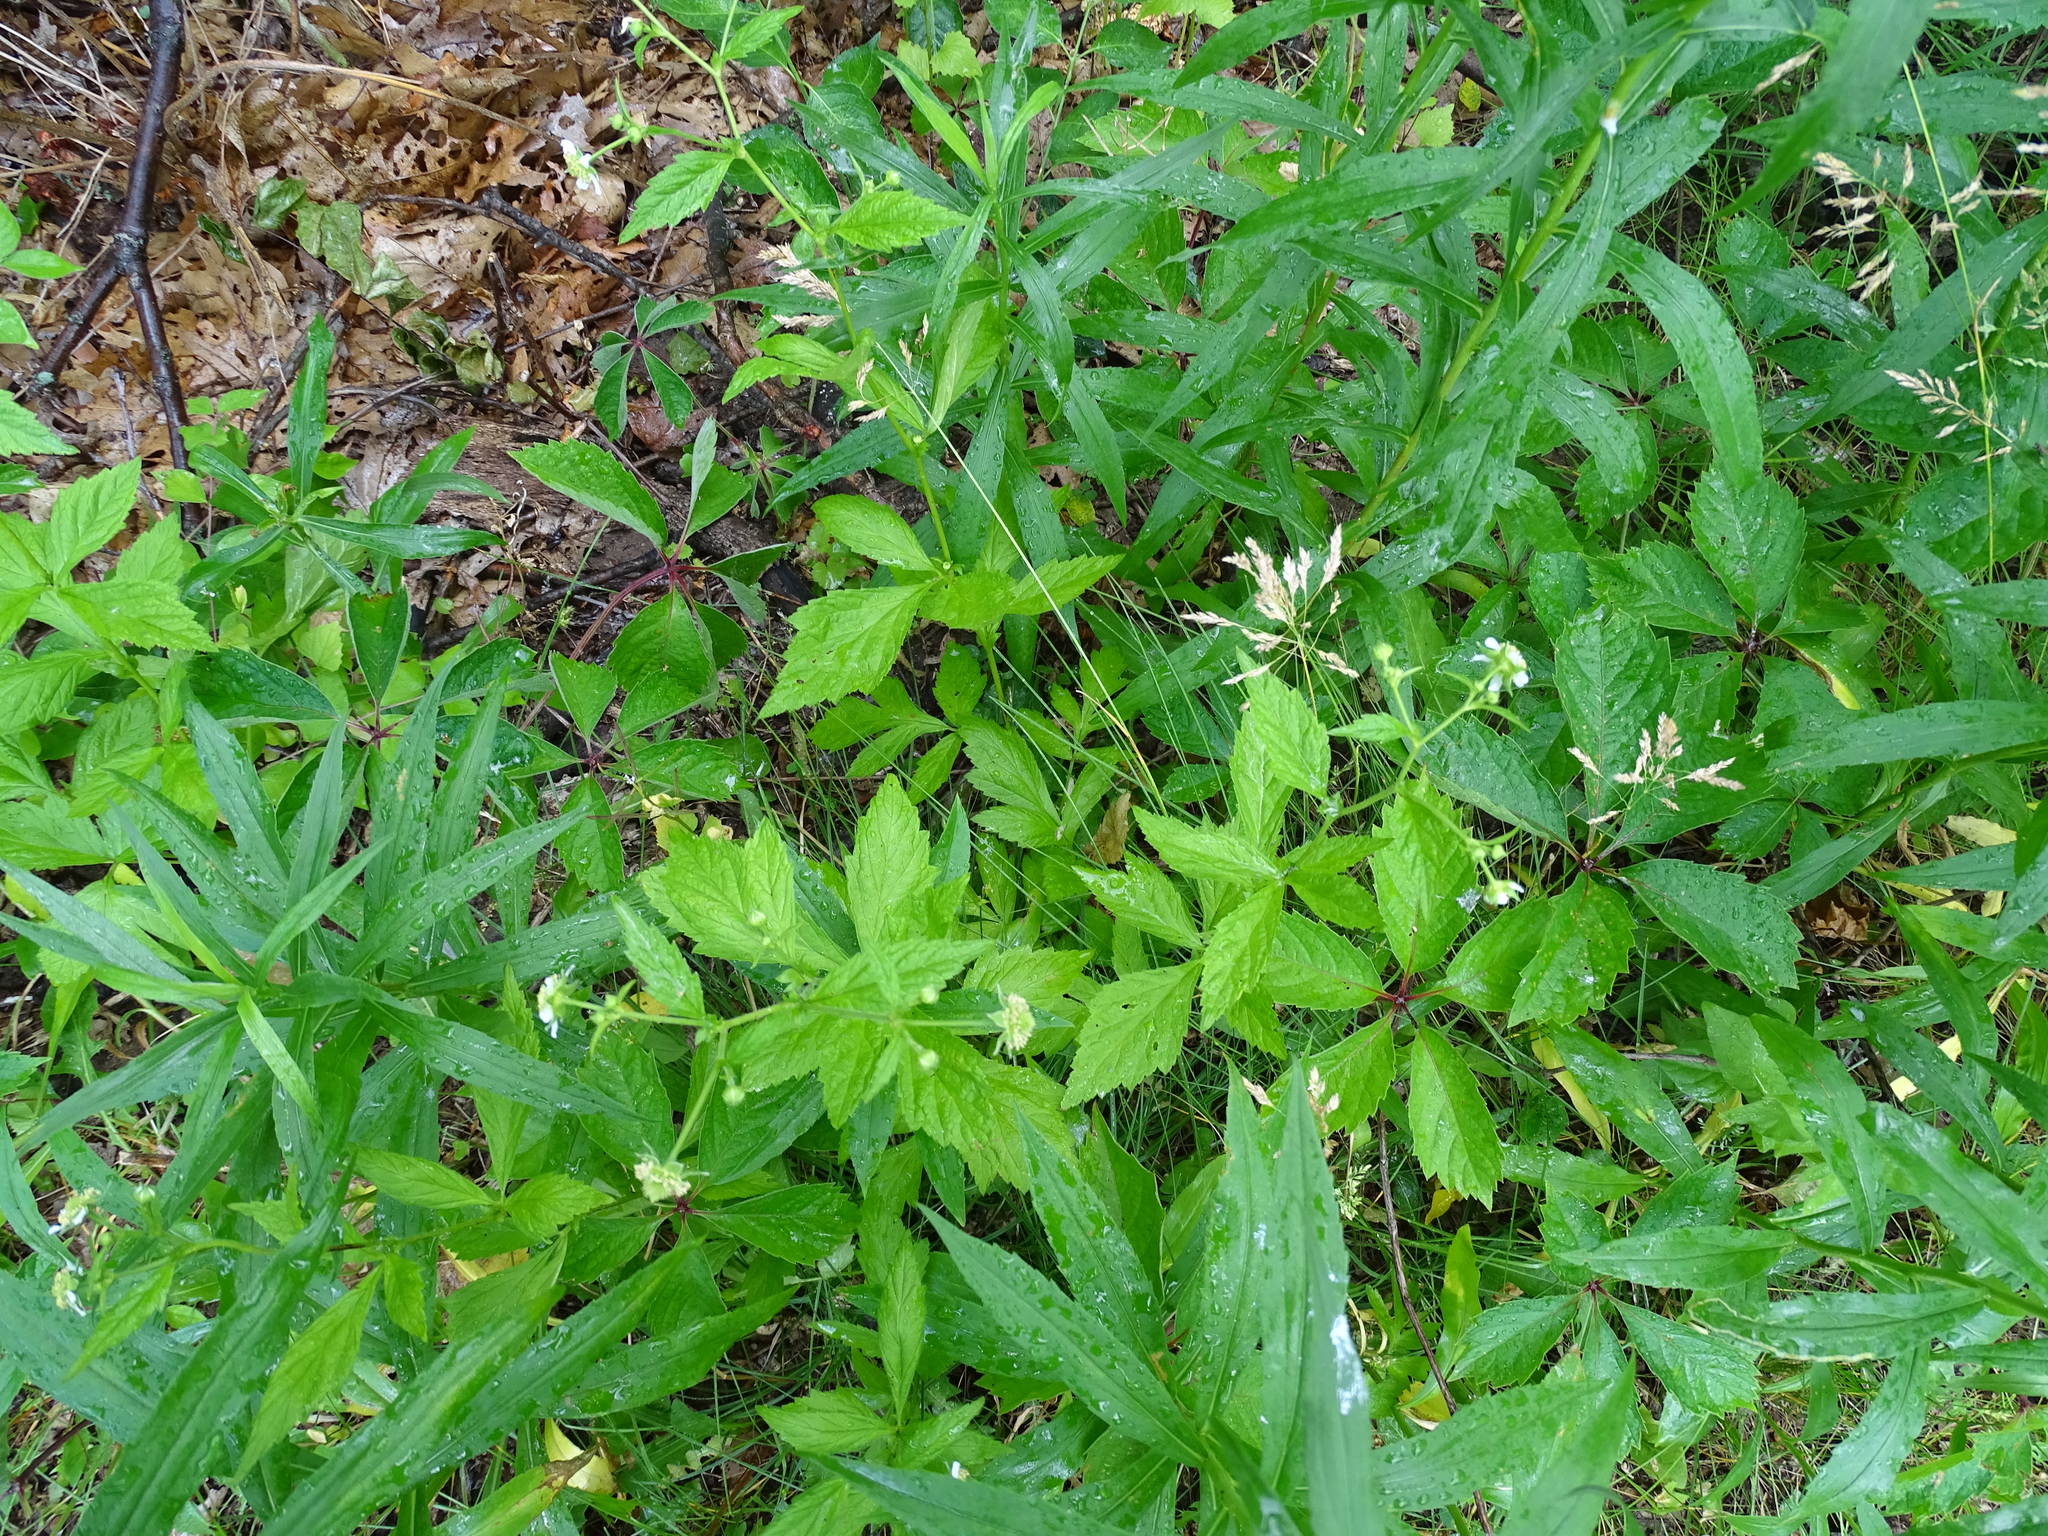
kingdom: Plantae
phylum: Tracheophyta
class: Magnoliopsida
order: Rosales
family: Rosaceae
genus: Geum
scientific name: Geum canadense
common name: White avens
